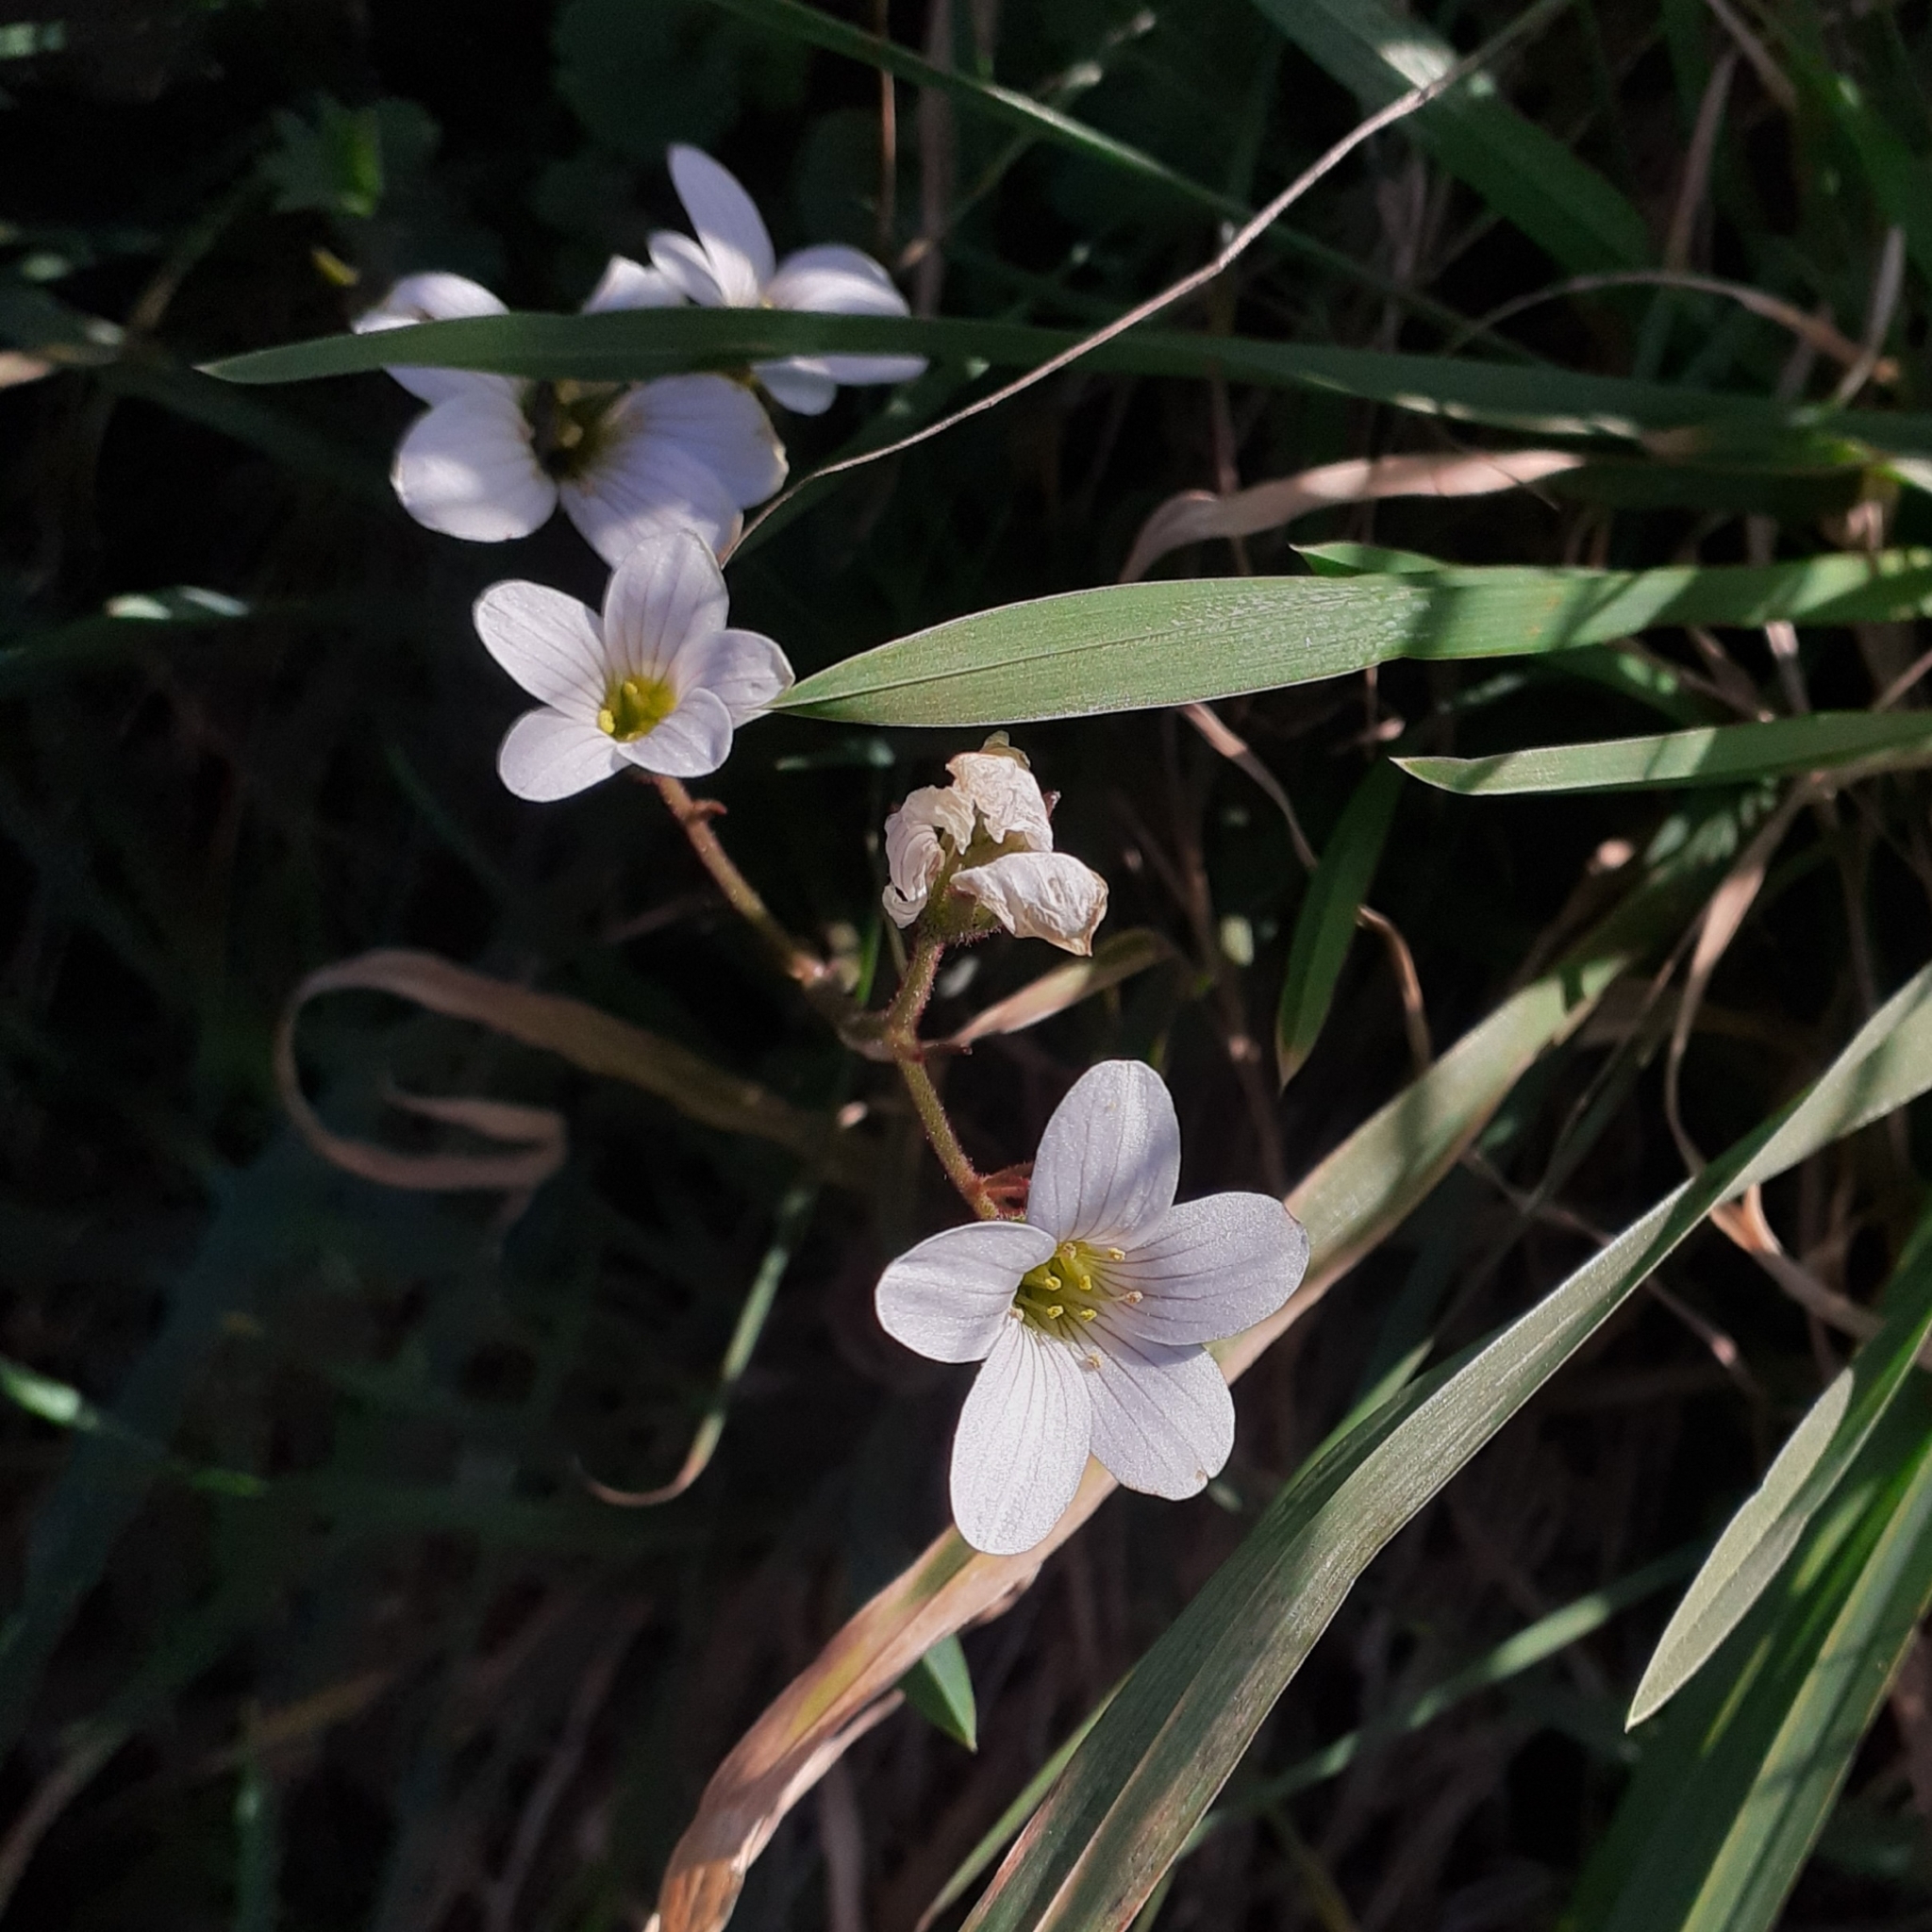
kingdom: Plantae
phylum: Tracheophyta
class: Magnoliopsida
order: Saxifragales
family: Saxifragaceae
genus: Saxifraga
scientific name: Saxifraga granulata
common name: Meadow saxifrage
